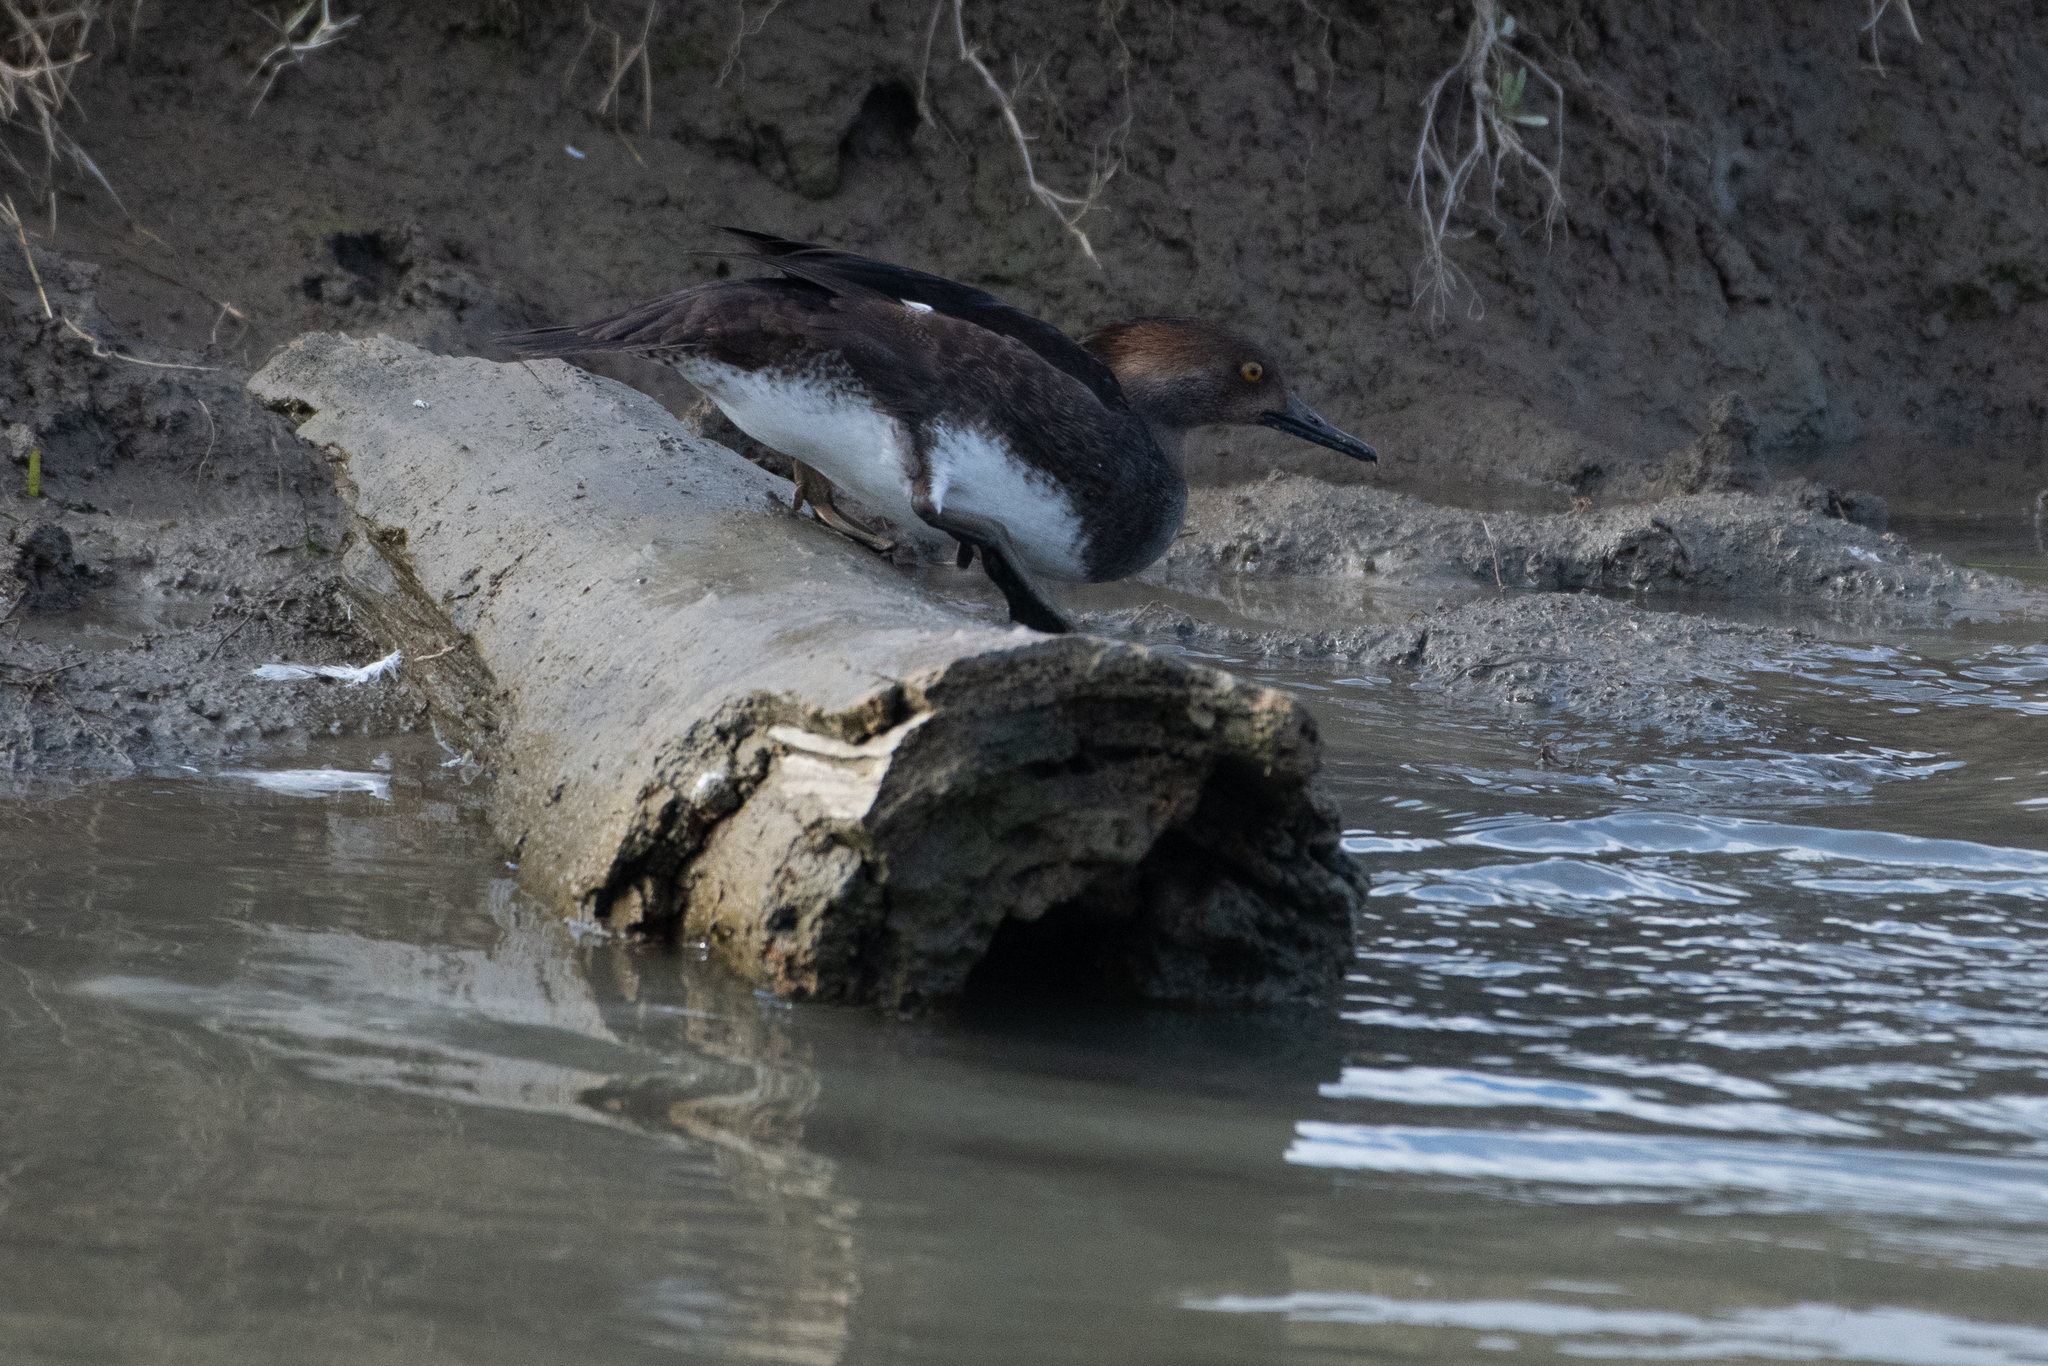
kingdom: Animalia
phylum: Chordata
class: Aves
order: Anseriformes
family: Anatidae
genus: Lophodytes
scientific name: Lophodytes cucullatus
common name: Hooded merganser
